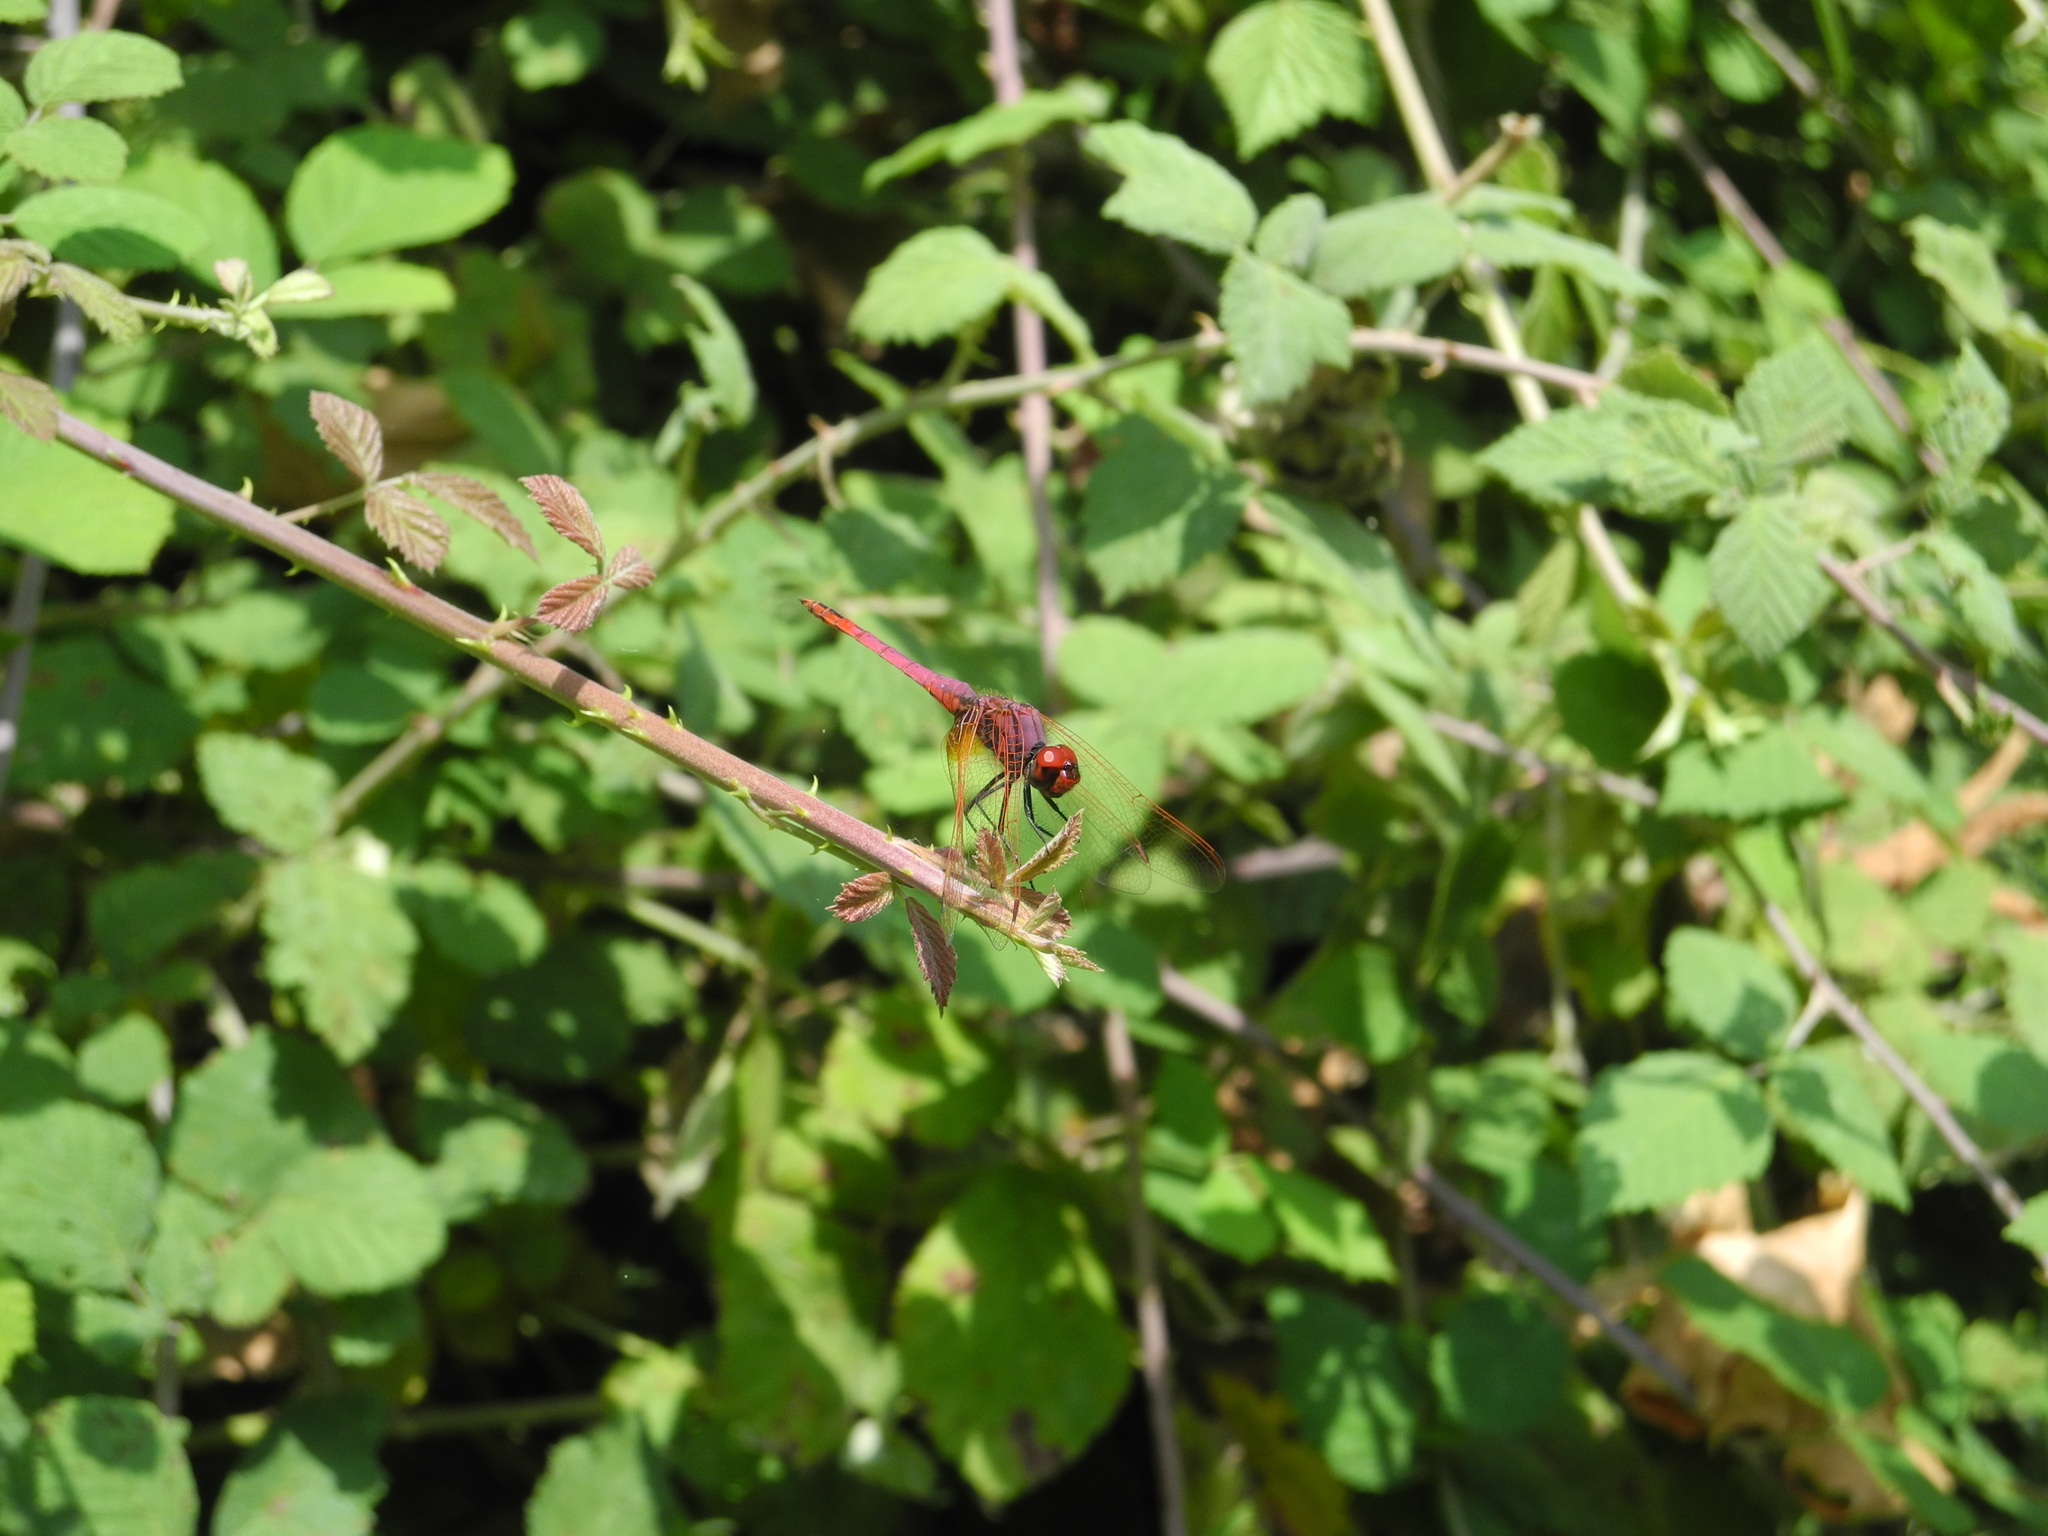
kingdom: Animalia
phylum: Arthropoda
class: Insecta
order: Odonata
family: Libellulidae
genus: Trithemis
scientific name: Trithemis annulata
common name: Violet dropwing
